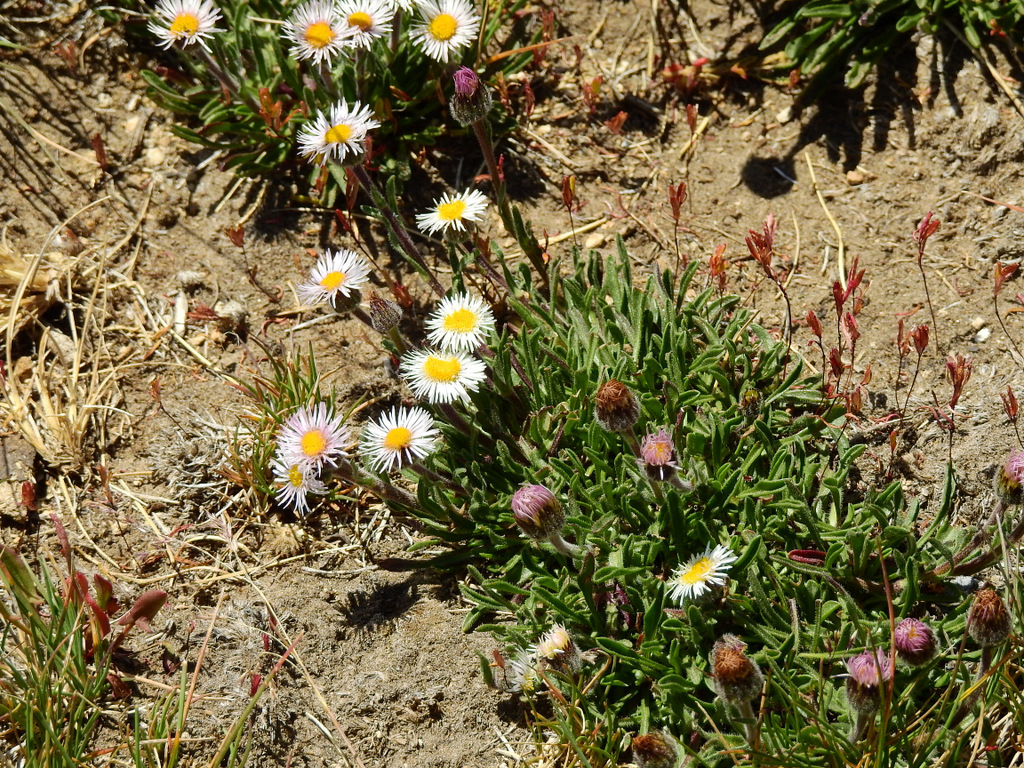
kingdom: Plantae
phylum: Tracheophyta
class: Magnoliopsida
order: Asterales
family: Asteraceae
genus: Erigeron
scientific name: Erigeron patagonicus
